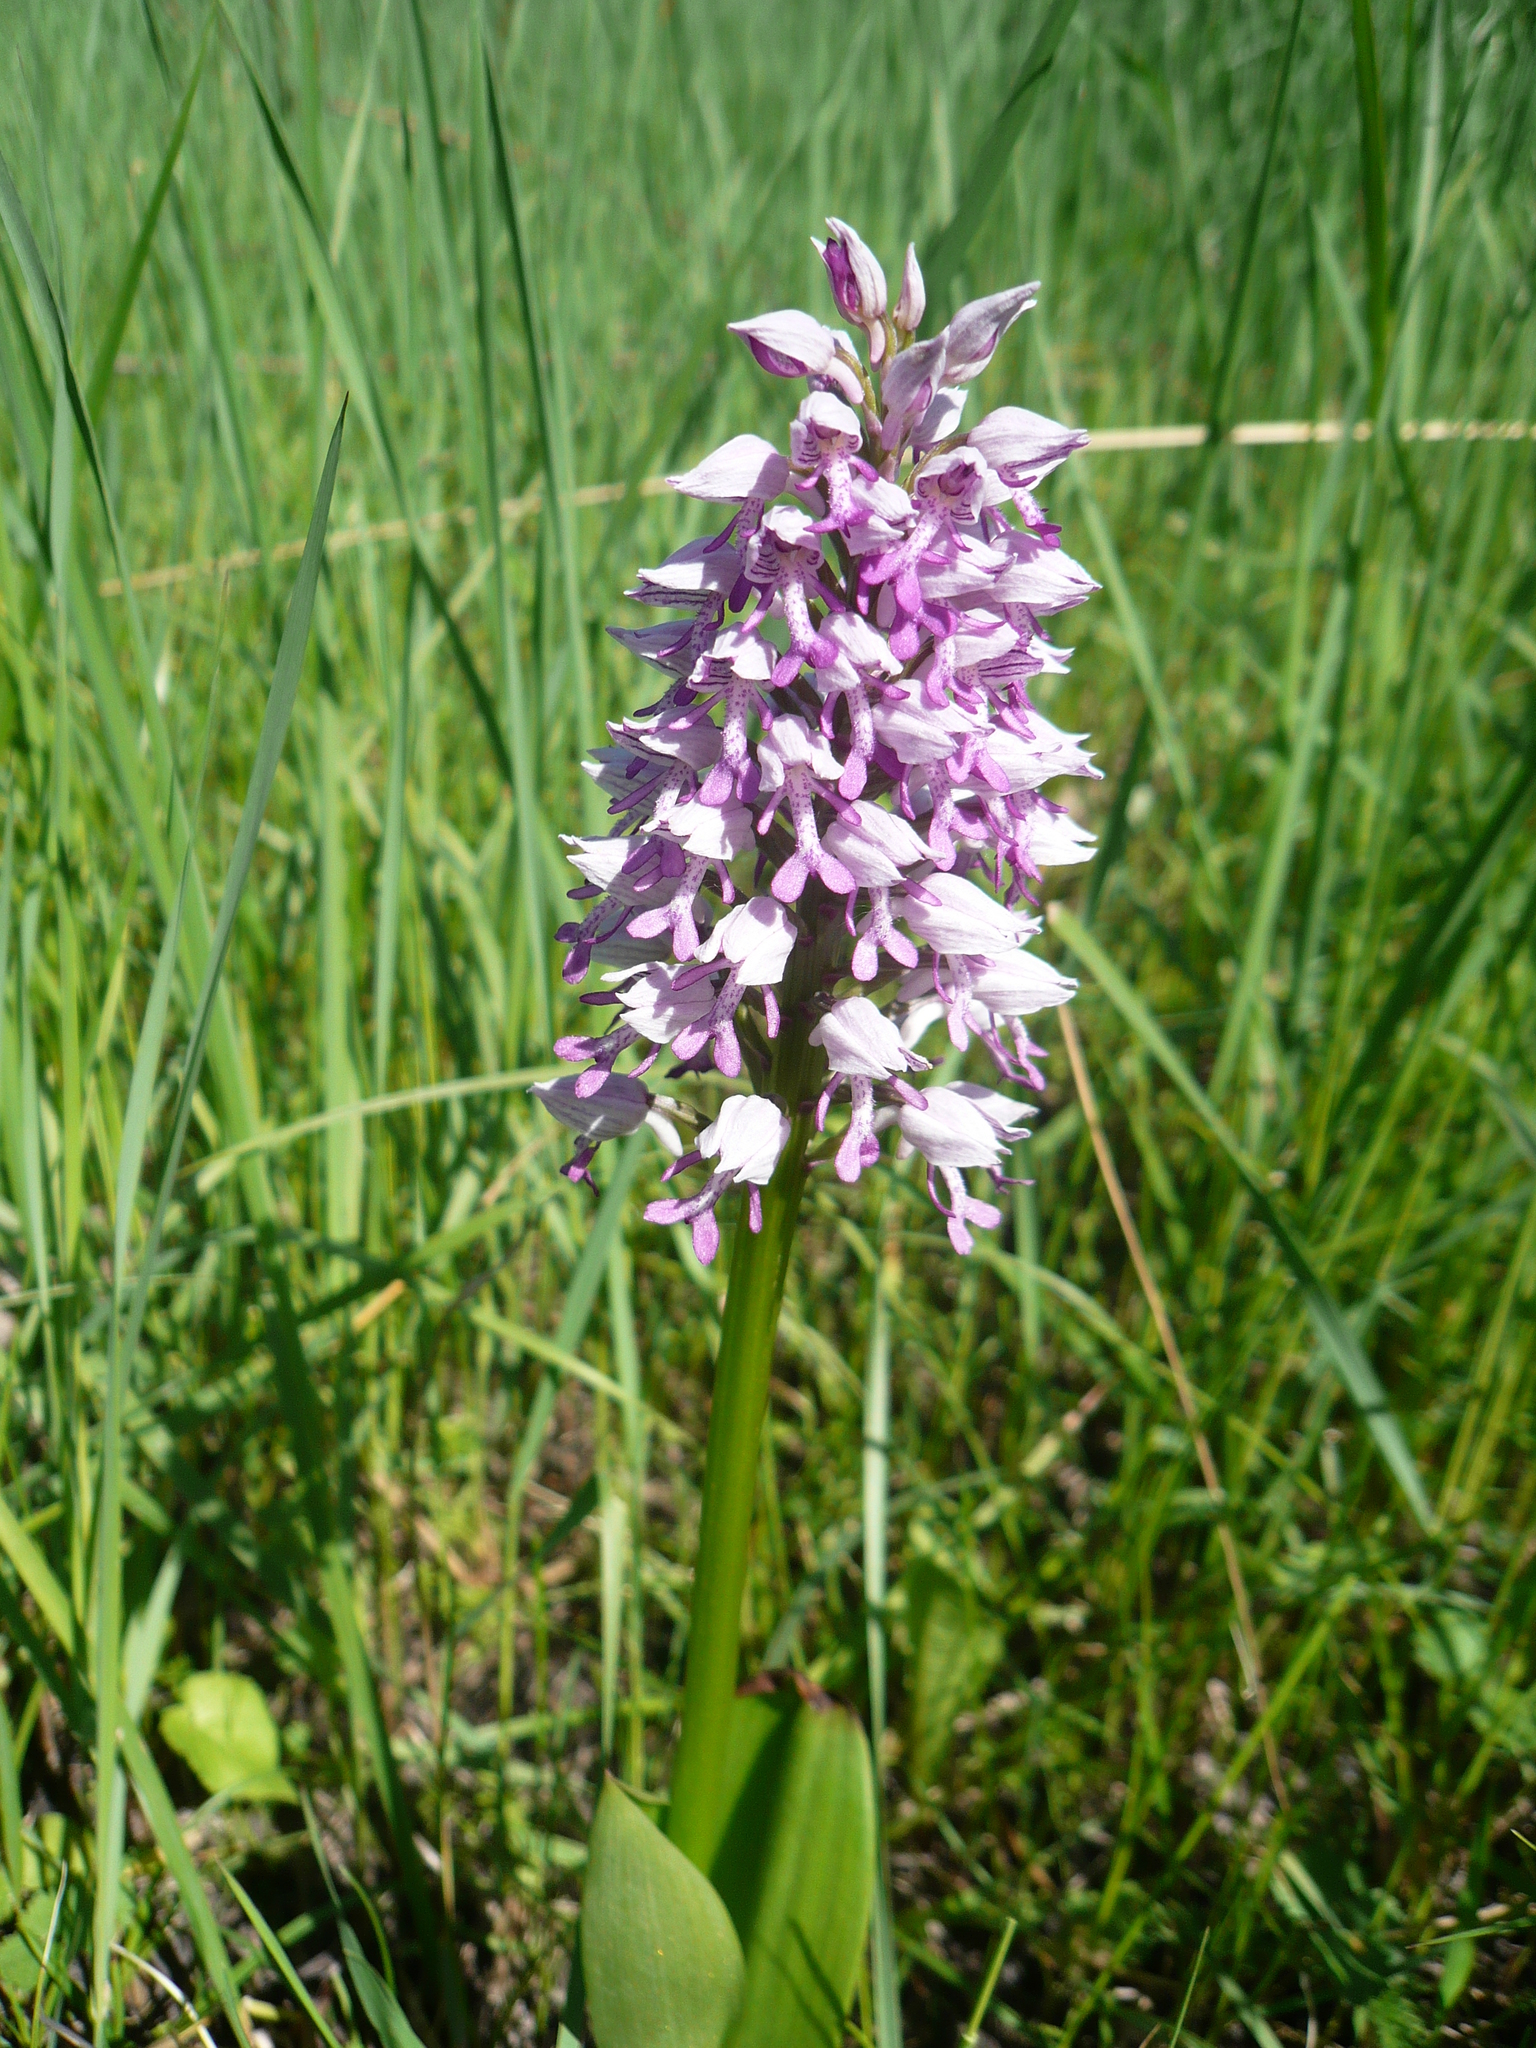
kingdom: Plantae
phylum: Tracheophyta
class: Liliopsida
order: Asparagales
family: Orchidaceae
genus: Orchis
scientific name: Orchis militaris
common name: Military orchid
